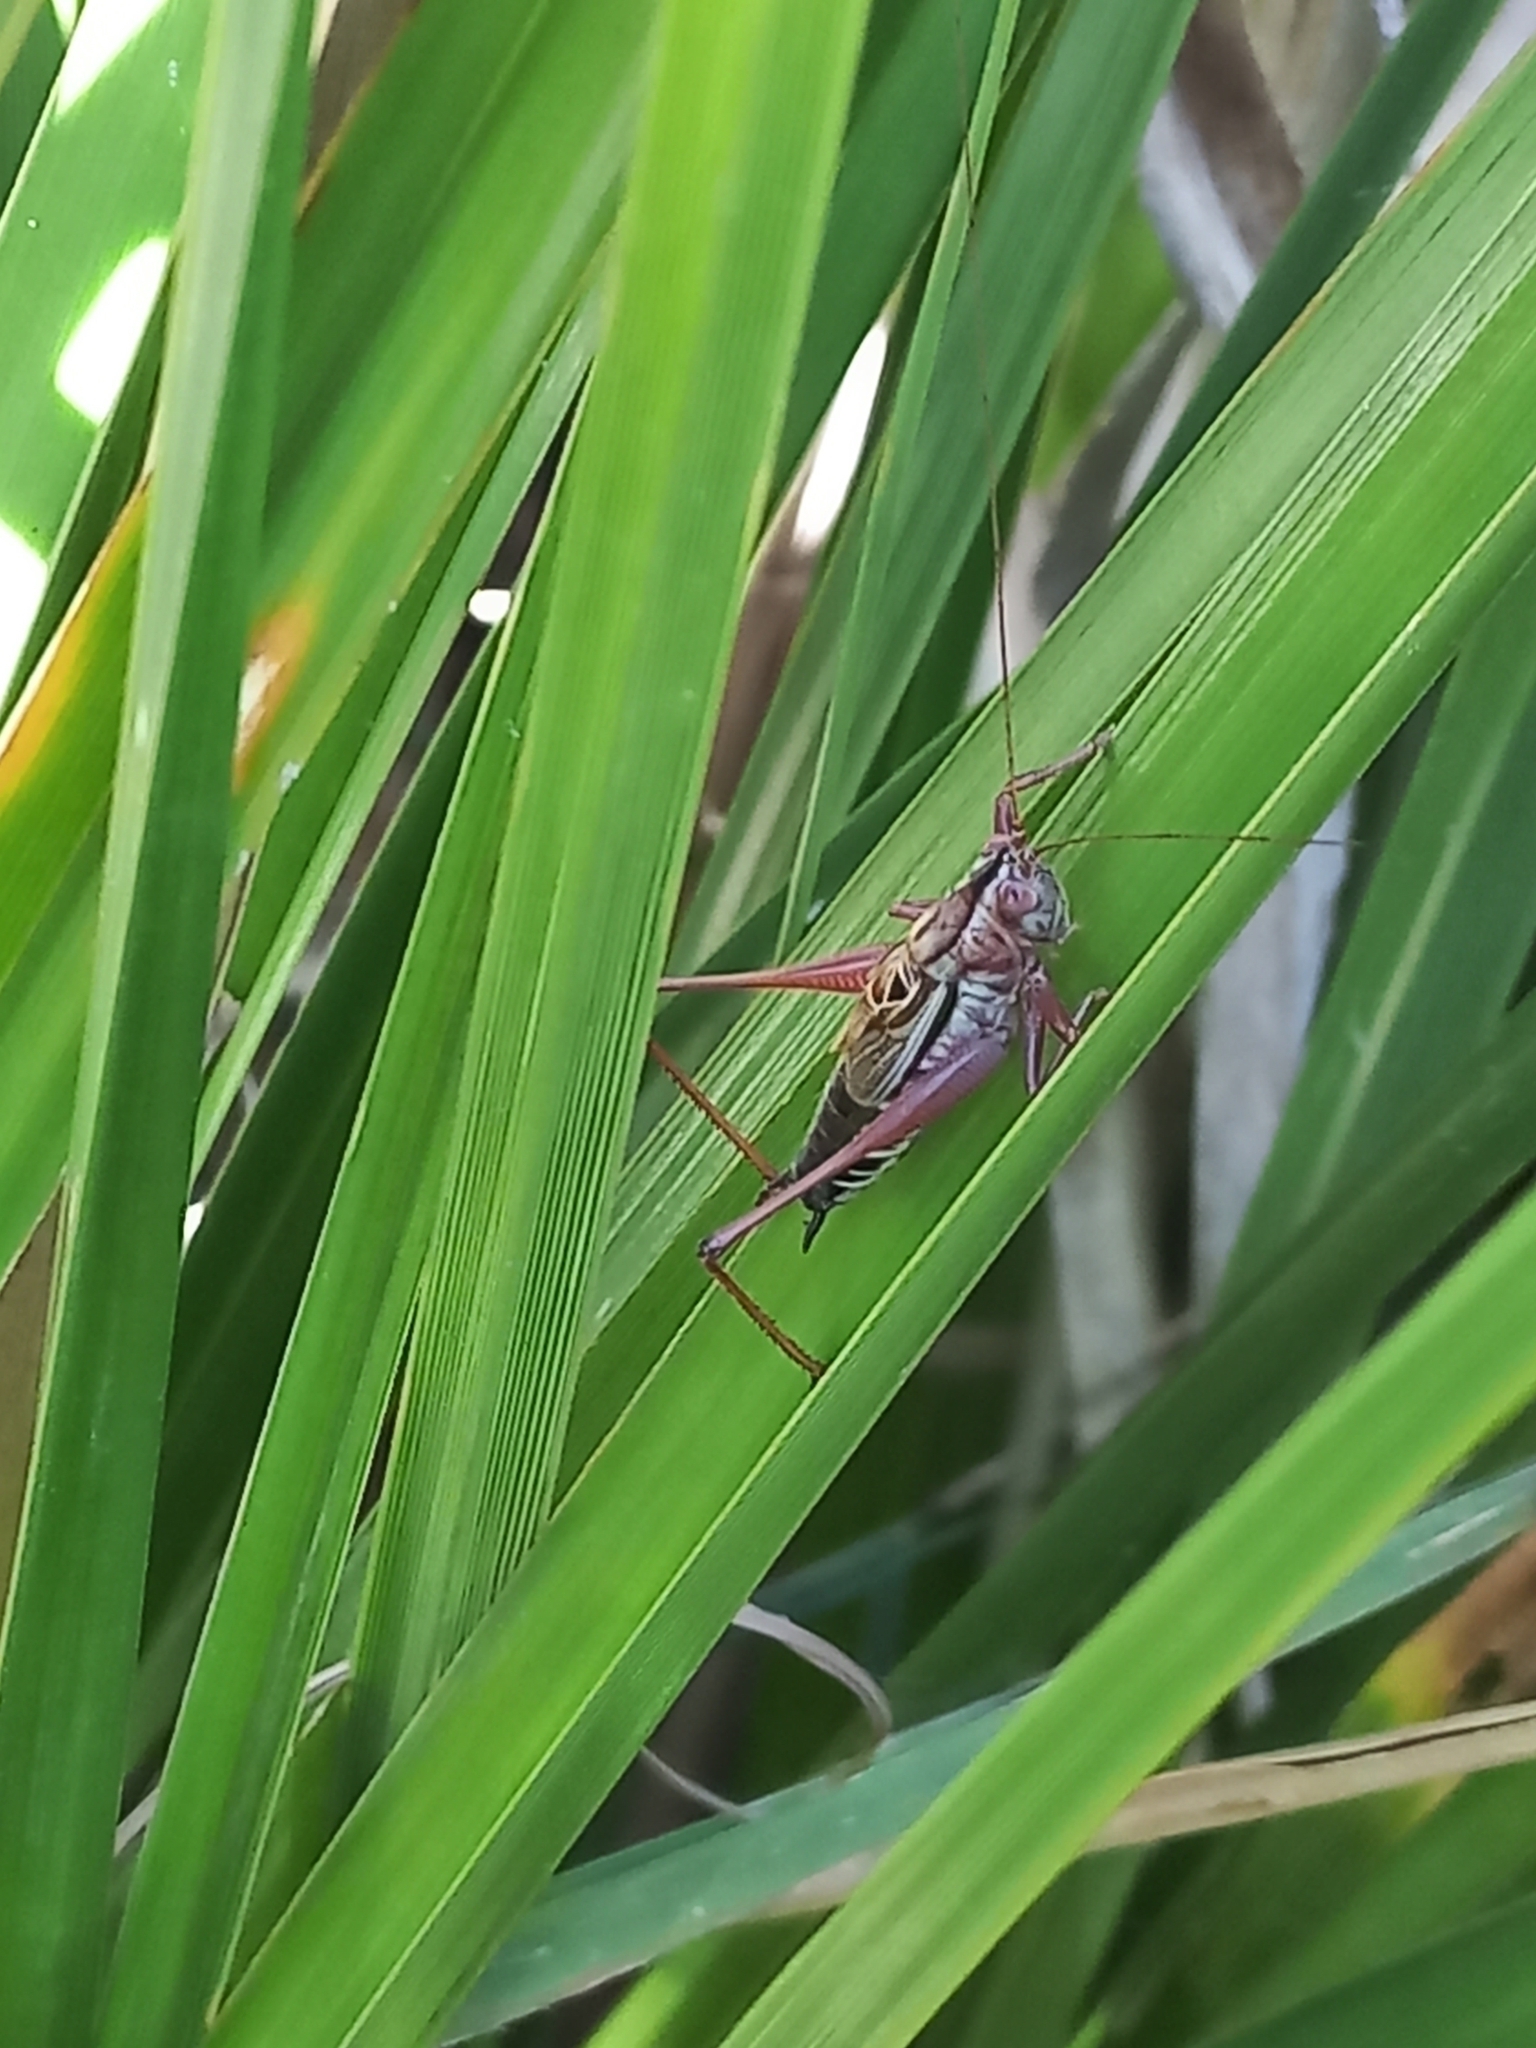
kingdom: Animalia
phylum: Arthropoda
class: Insecta
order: Orthoptera
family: Tettigoniidae
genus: Conocephalus
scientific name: Conocephalus semivittatus
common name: Blackish meadow katydid
